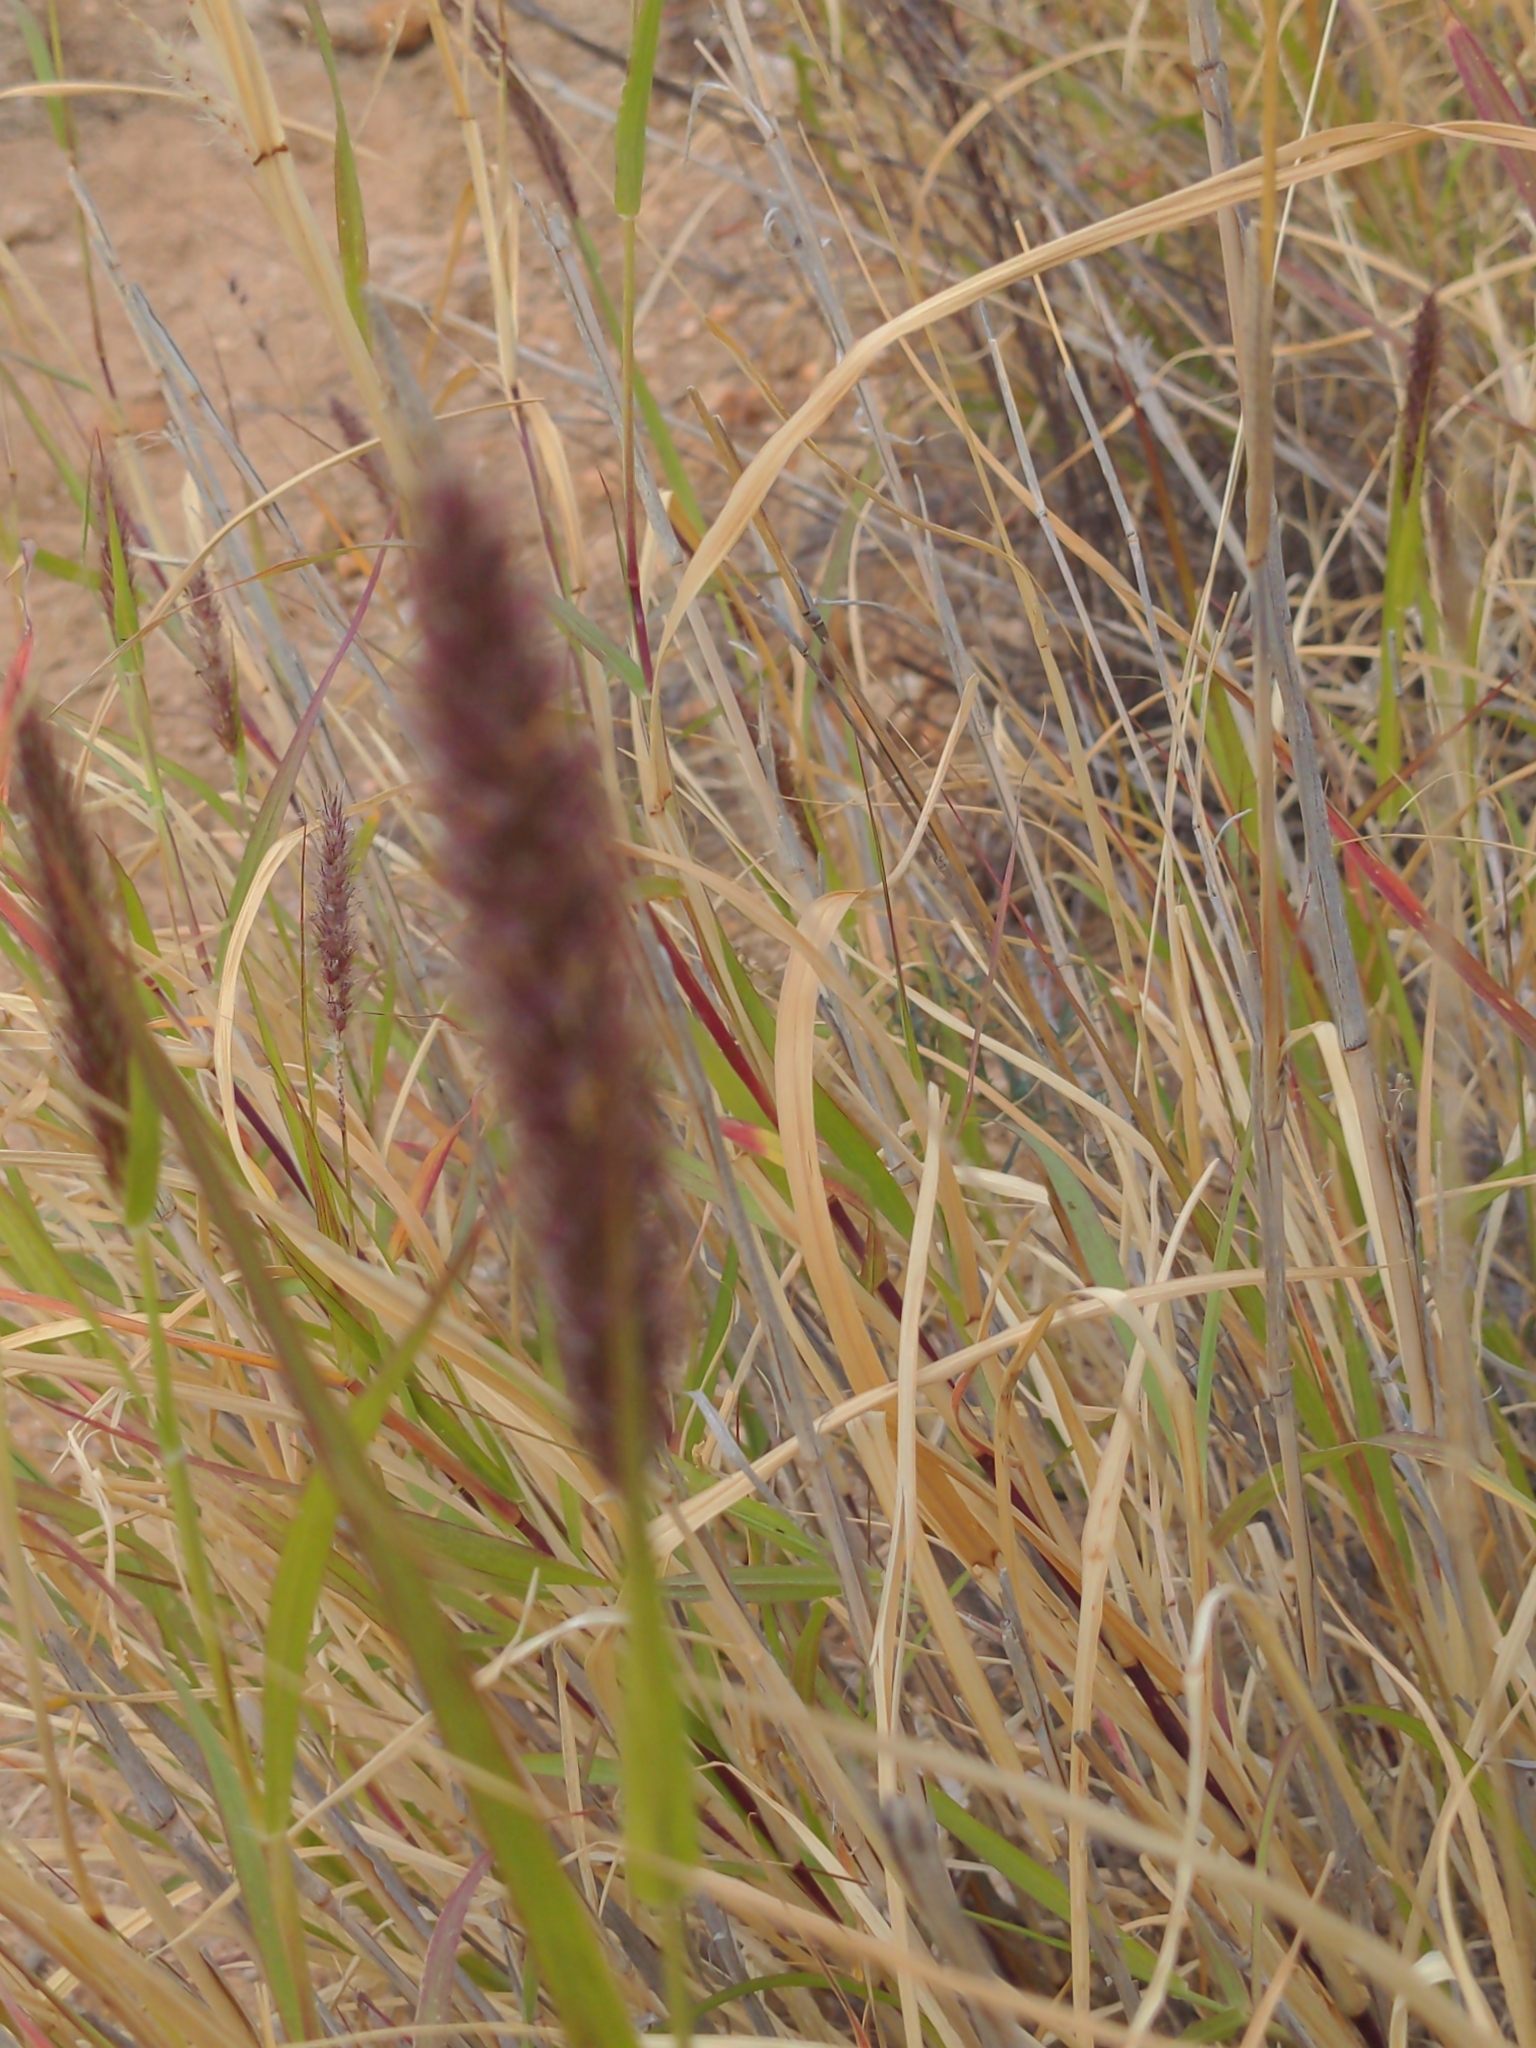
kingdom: Plantae
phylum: Tracheophyta
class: Liliopsida
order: Poales
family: Poaceae
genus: Cenchrus
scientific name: Cenchrus ciliaris
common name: Buffelgrass
